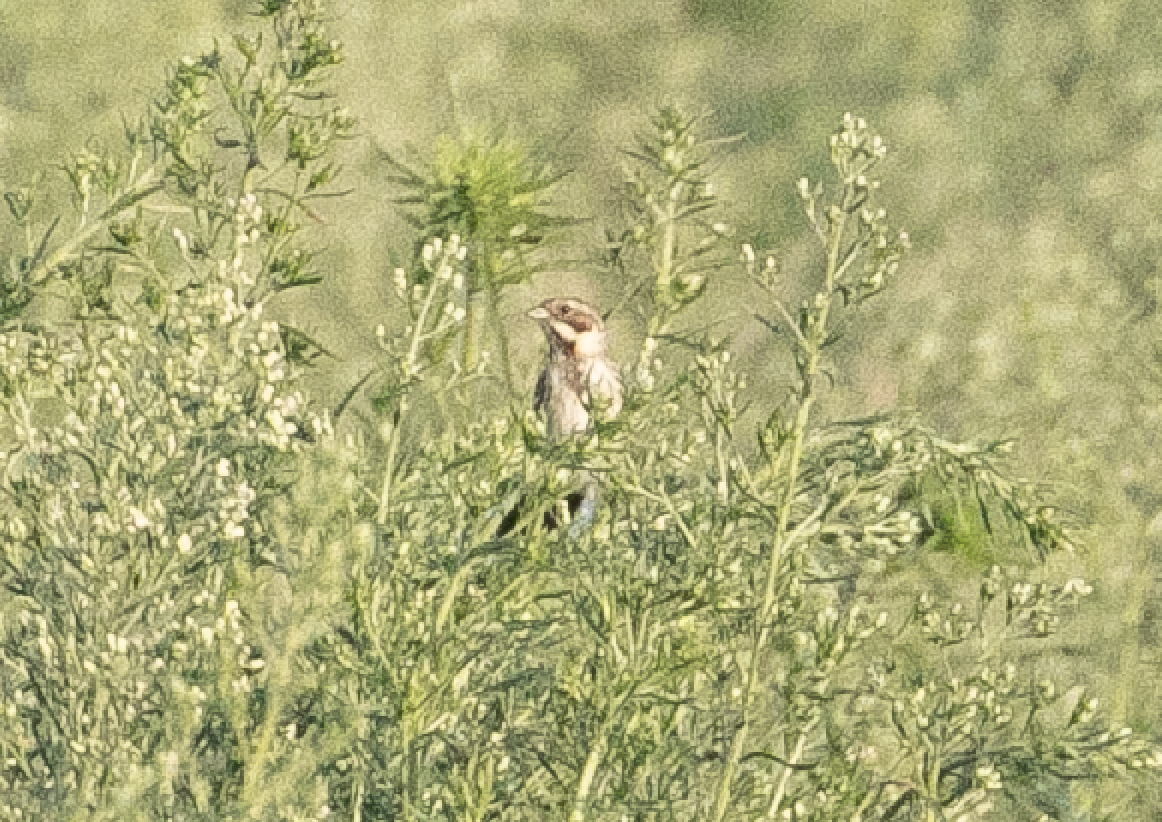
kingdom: Animalia
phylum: Chordata
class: Aves
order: Passeriformes
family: Emberizidae
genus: Emberiza
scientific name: Emberiza schoeniclus
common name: Reed bunting
